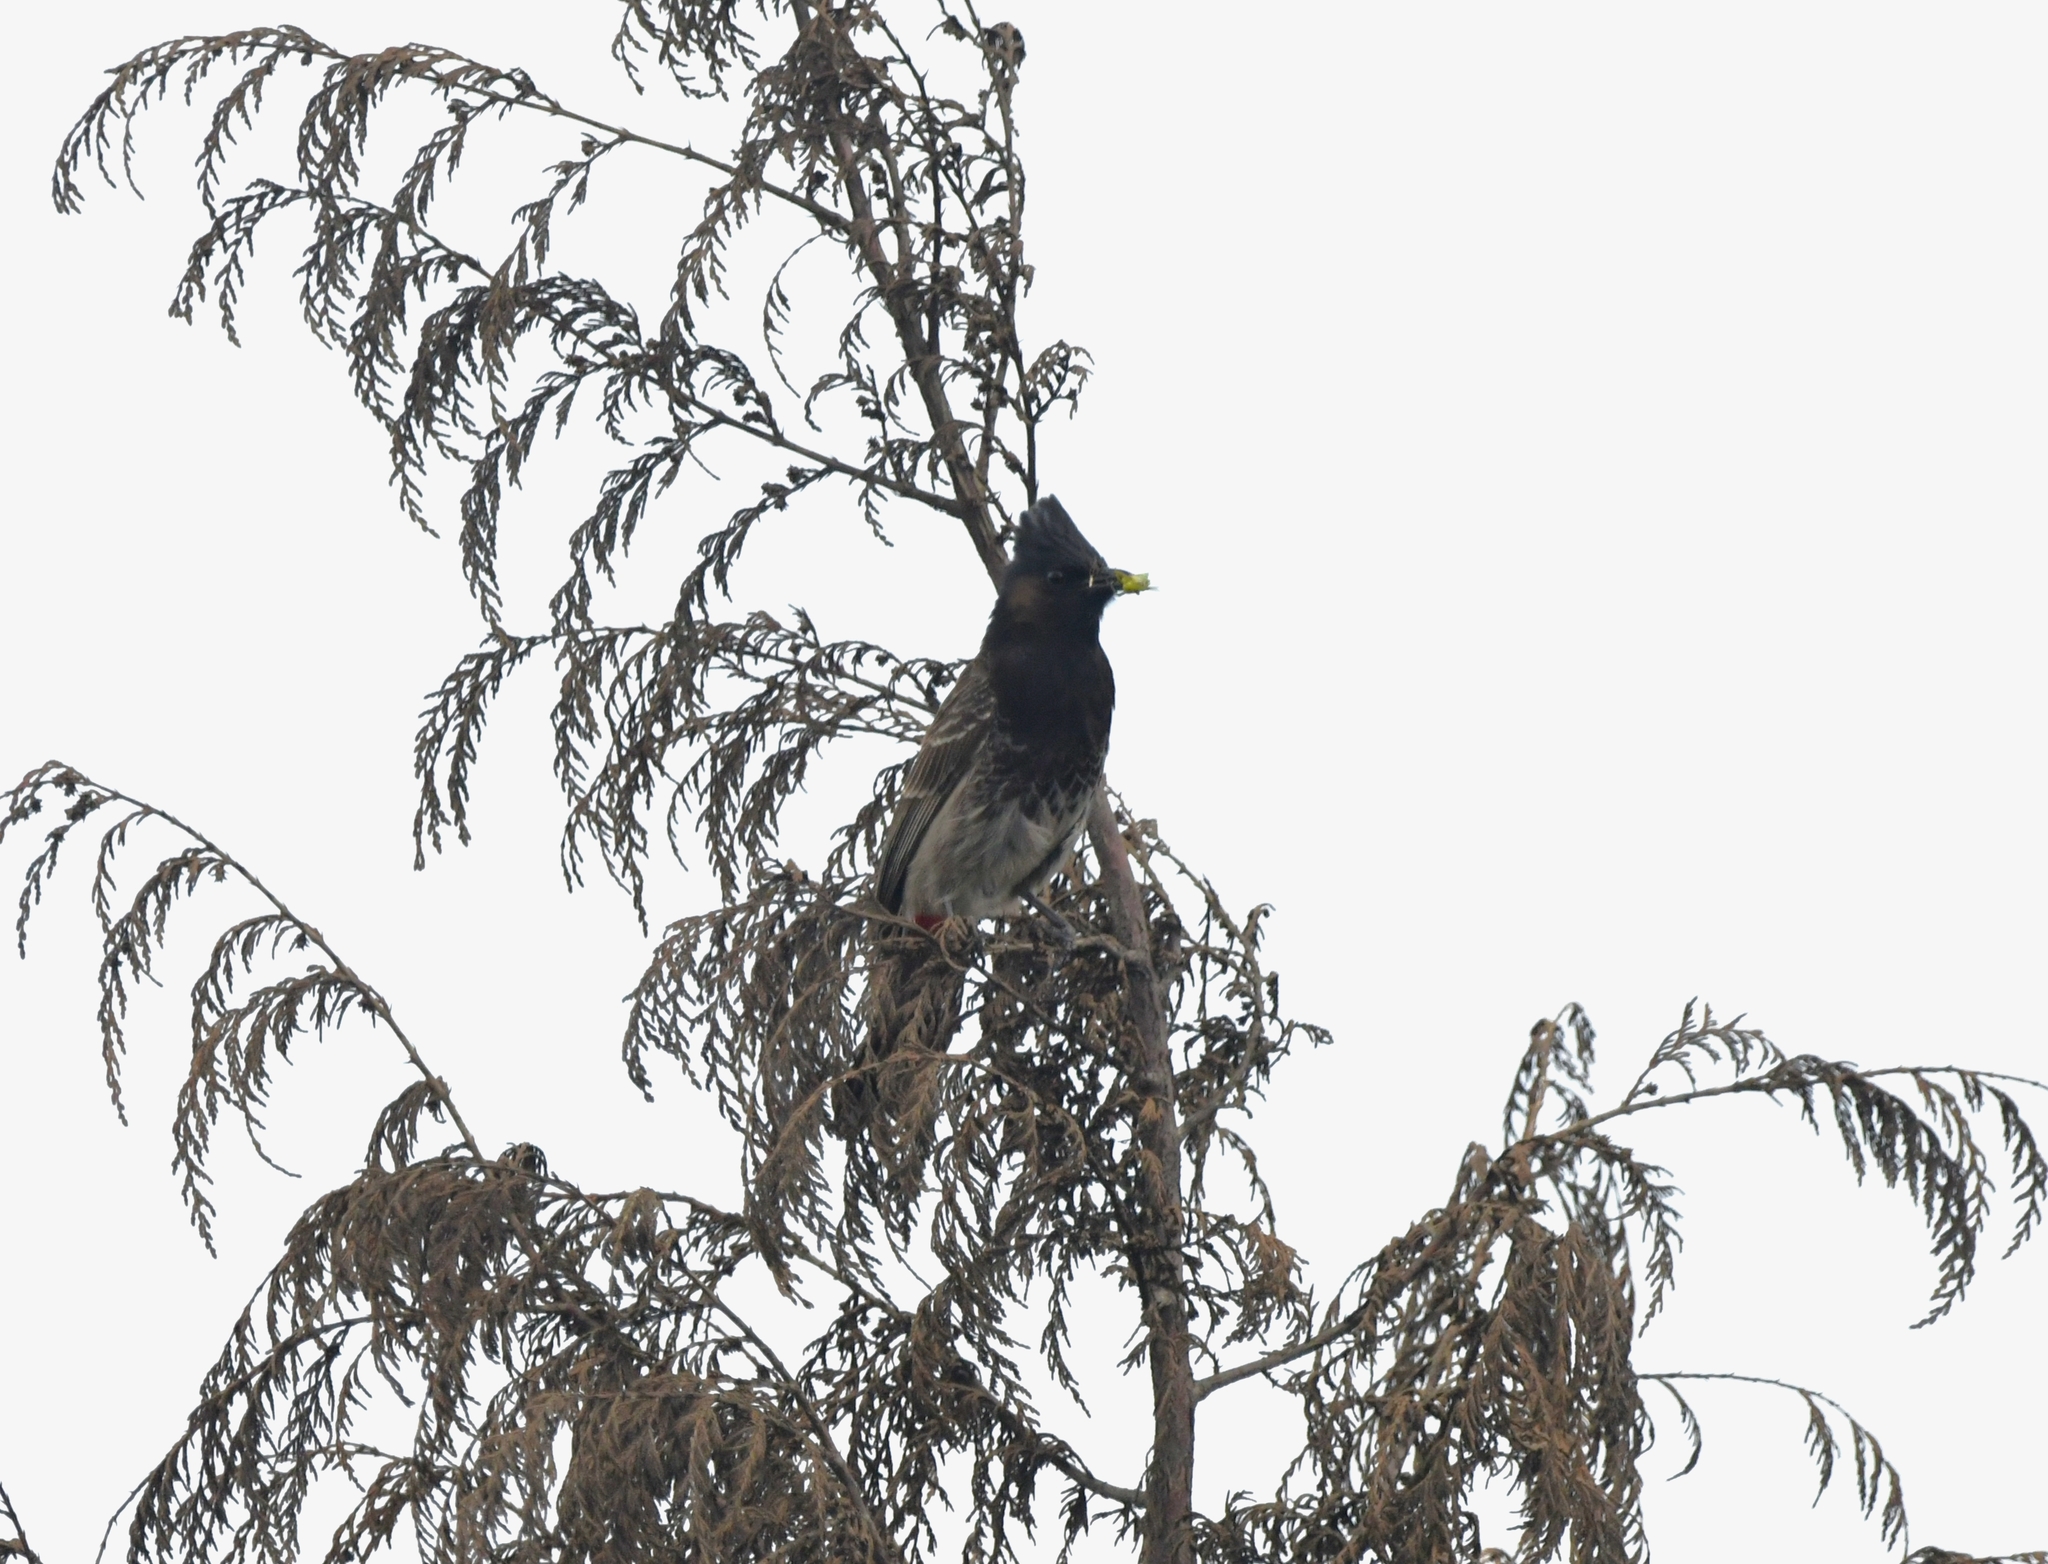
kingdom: Animalia
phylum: Chordata
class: Aves
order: Passeriformes
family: Pycnonotidae
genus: Pycnonotus
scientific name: Pycnonotus cafer
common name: Red-vented bulbul
